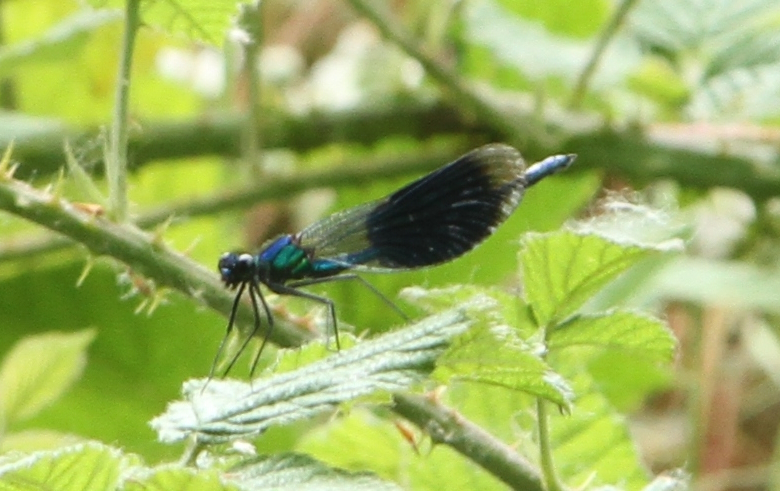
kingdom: Animalia
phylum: Arthropoda
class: Insecta
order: Odonata
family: Calopterygidae
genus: Calopteryx
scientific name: Calopteryx splendens
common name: Banded demoiselle
